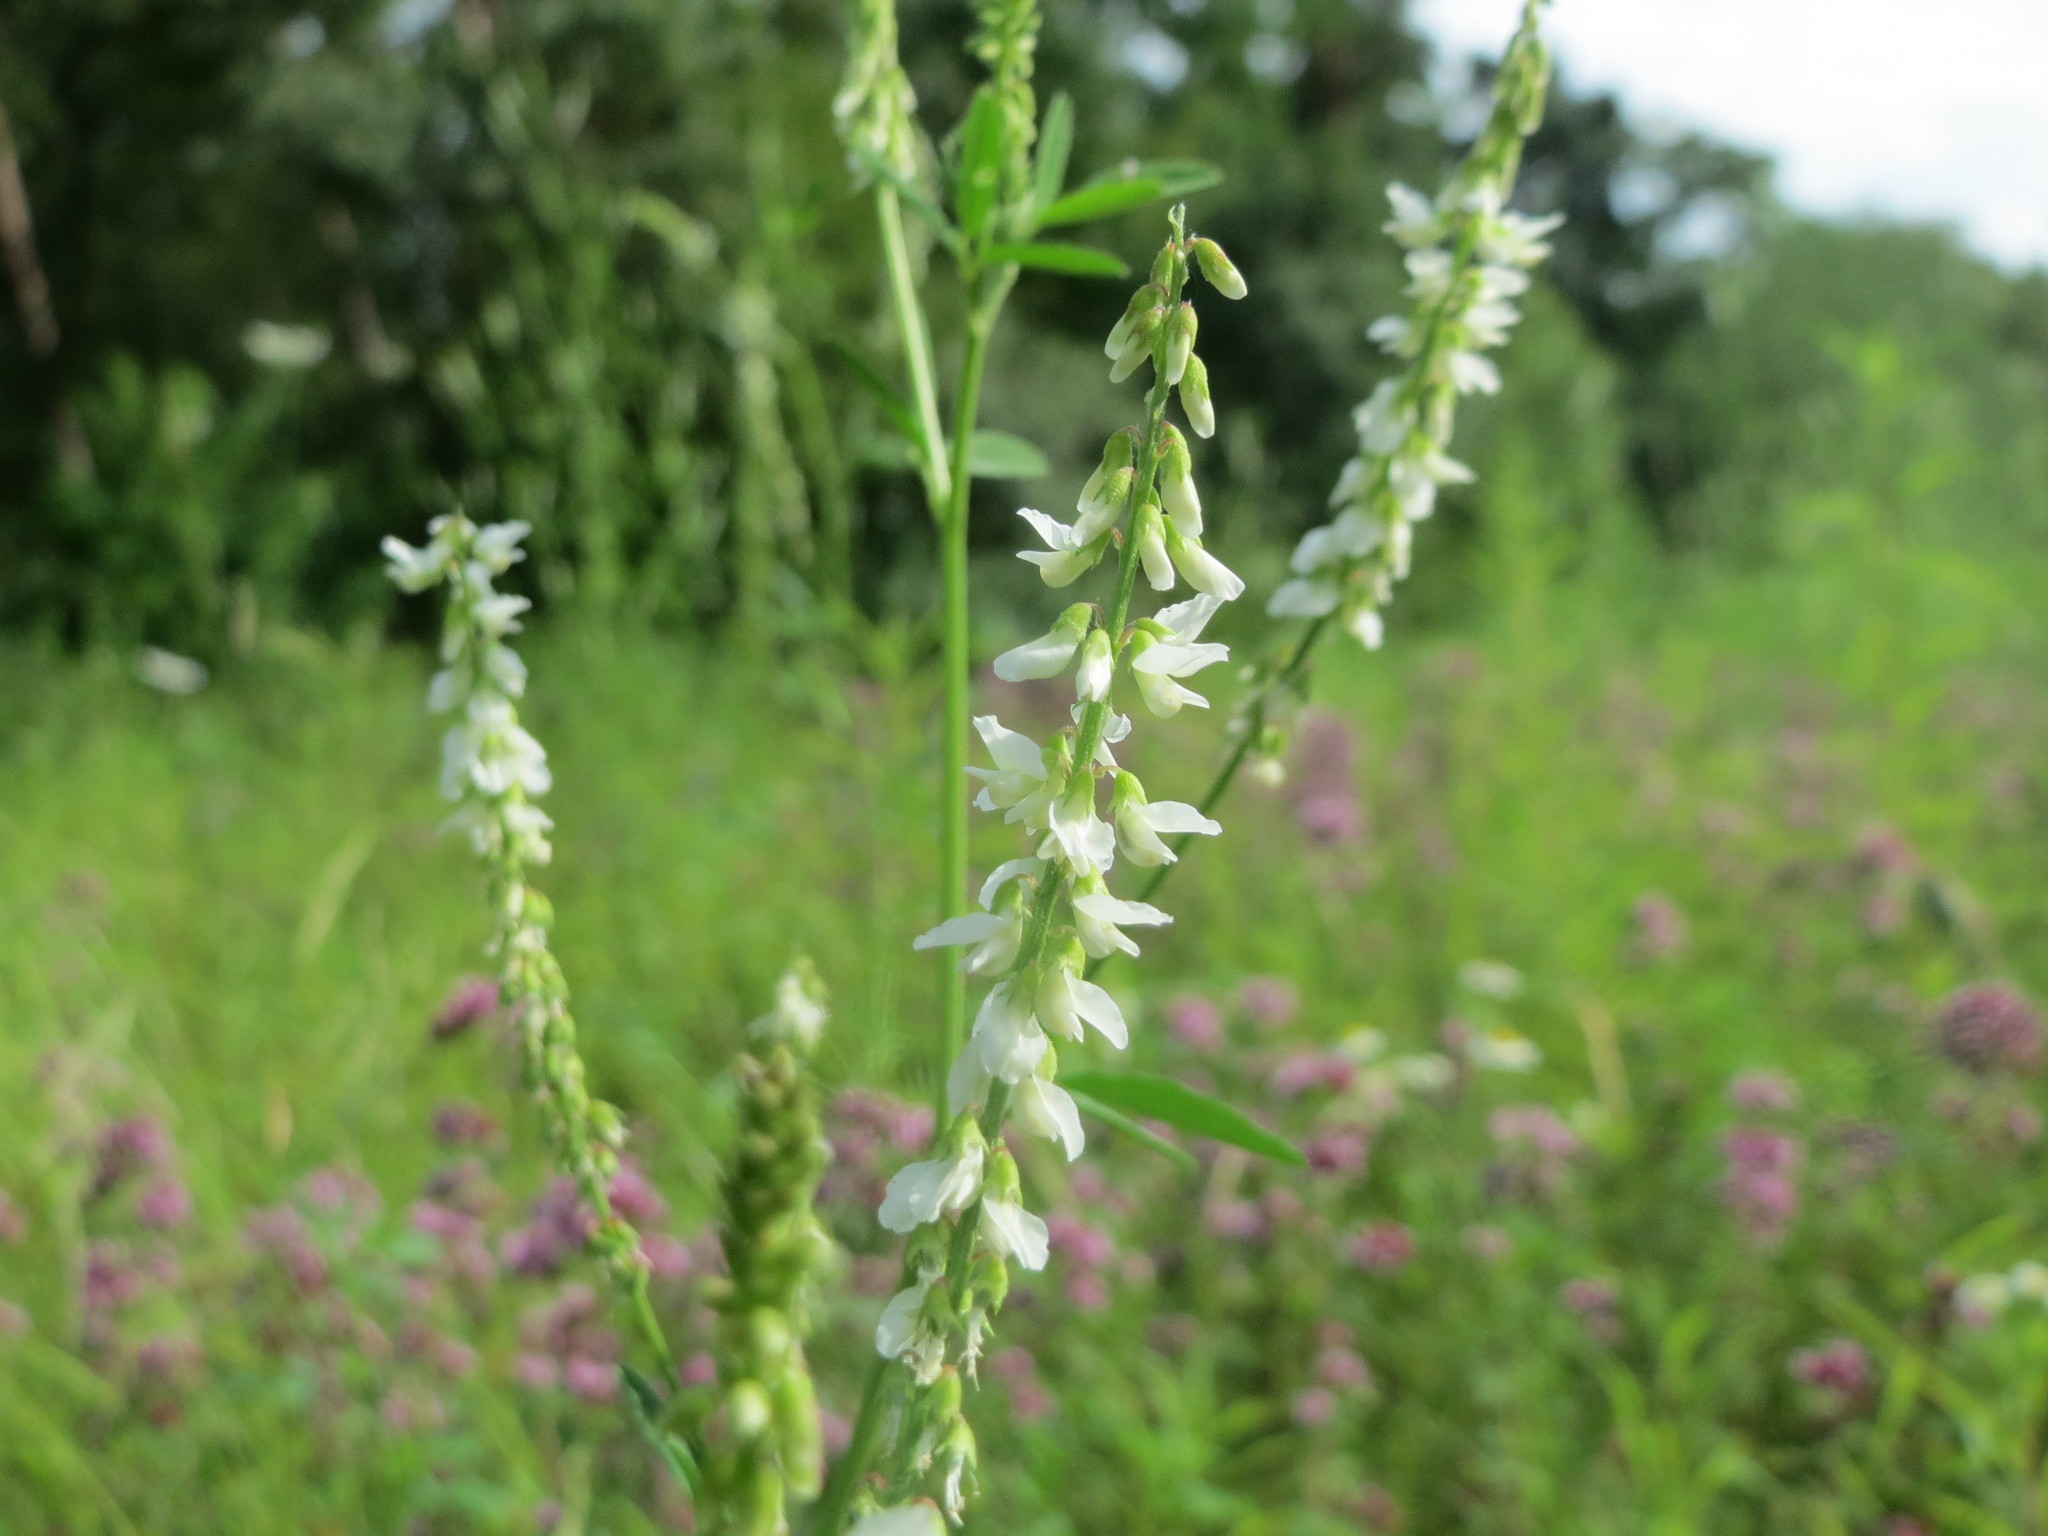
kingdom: Plantae
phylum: Tracheophyta
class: Magnoliopsida
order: Fabales
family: Fabaceae
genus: Melilotus
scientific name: Melilotus albus
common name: White melilot
